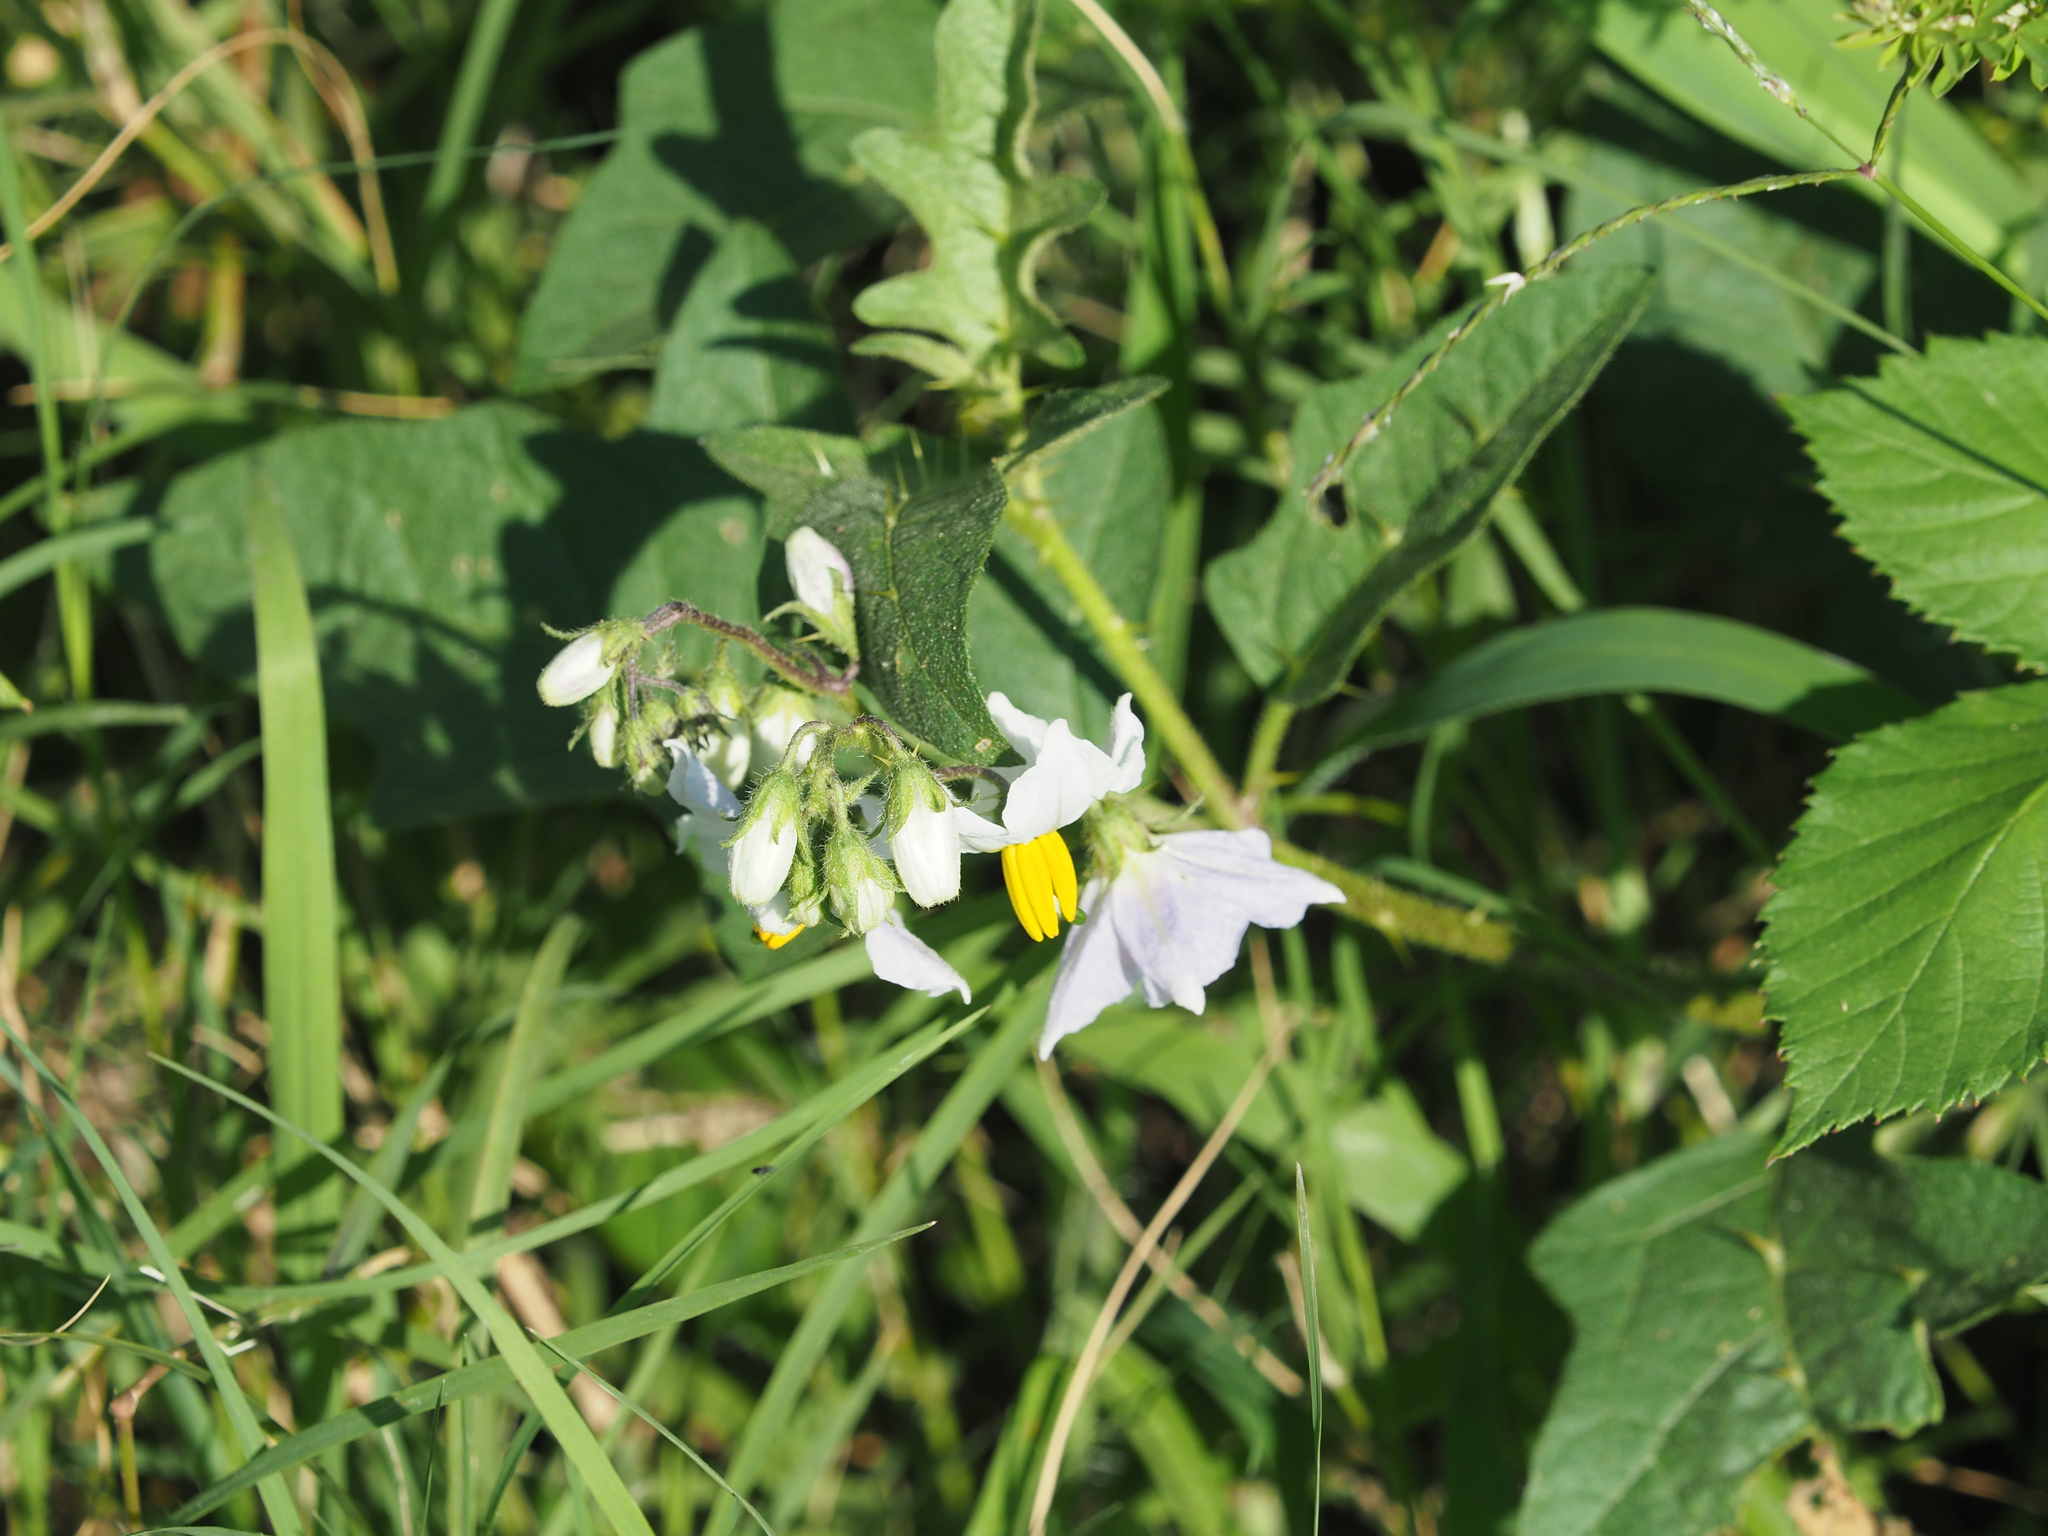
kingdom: Plantae
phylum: Tracheophyta
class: Magnoliopsida
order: Solanales
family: Solanaceae
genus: Solanum
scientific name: Solanum carolinense
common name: Horse-nettle
